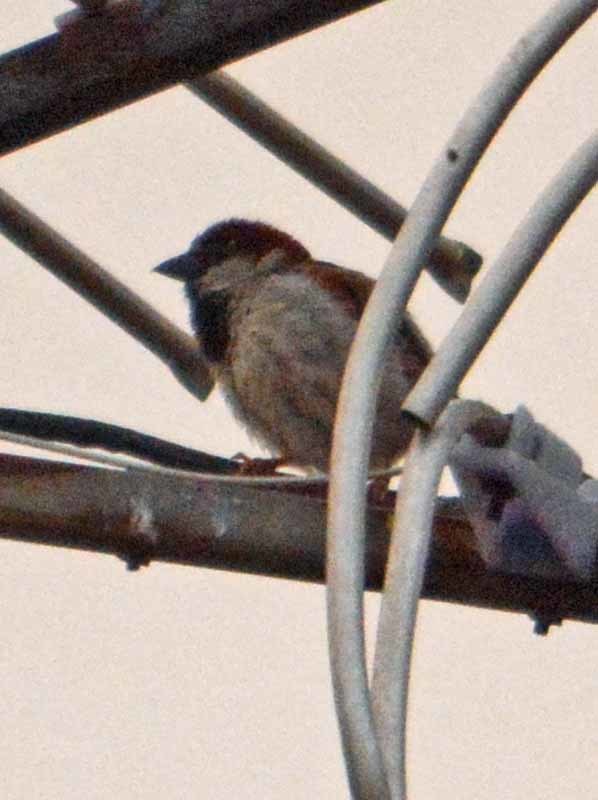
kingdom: Animalia
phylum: Chordata
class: Aves
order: Passeriformes
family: Passeridae
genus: Passer
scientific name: Passer domesticus
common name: House sparrow
